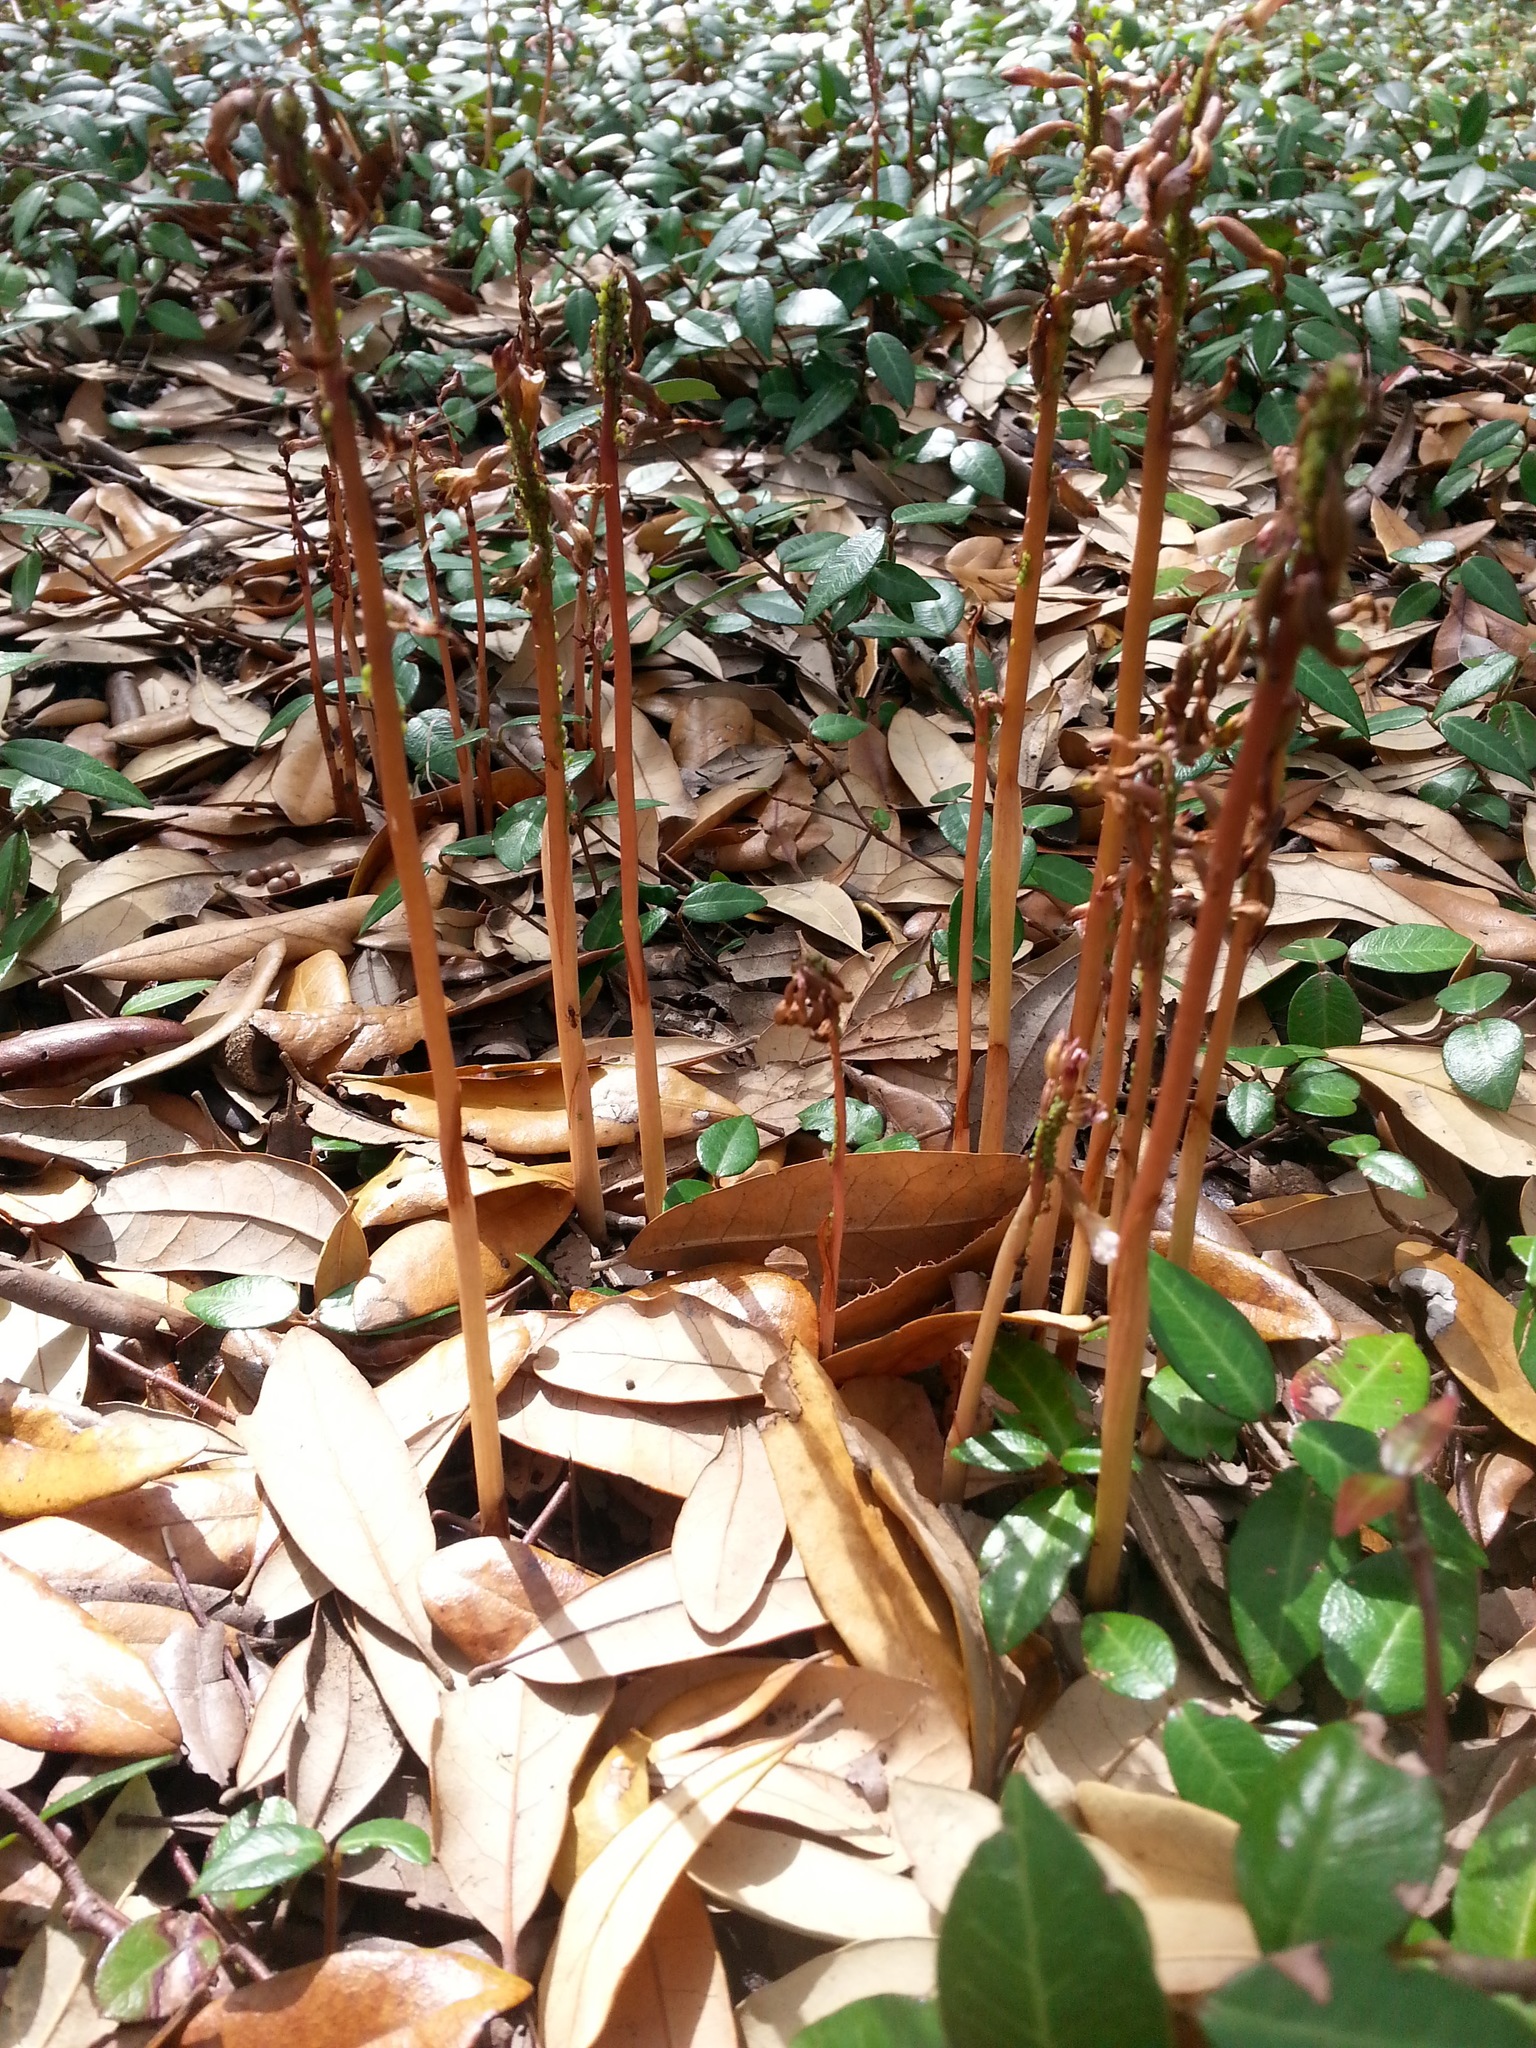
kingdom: Plantae
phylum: Tracheophyta
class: Liliopsida
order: Asparagales
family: Orchidaceae
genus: Corallorhiza
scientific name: Corallorhiza wisteriana
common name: Spring coralroot
